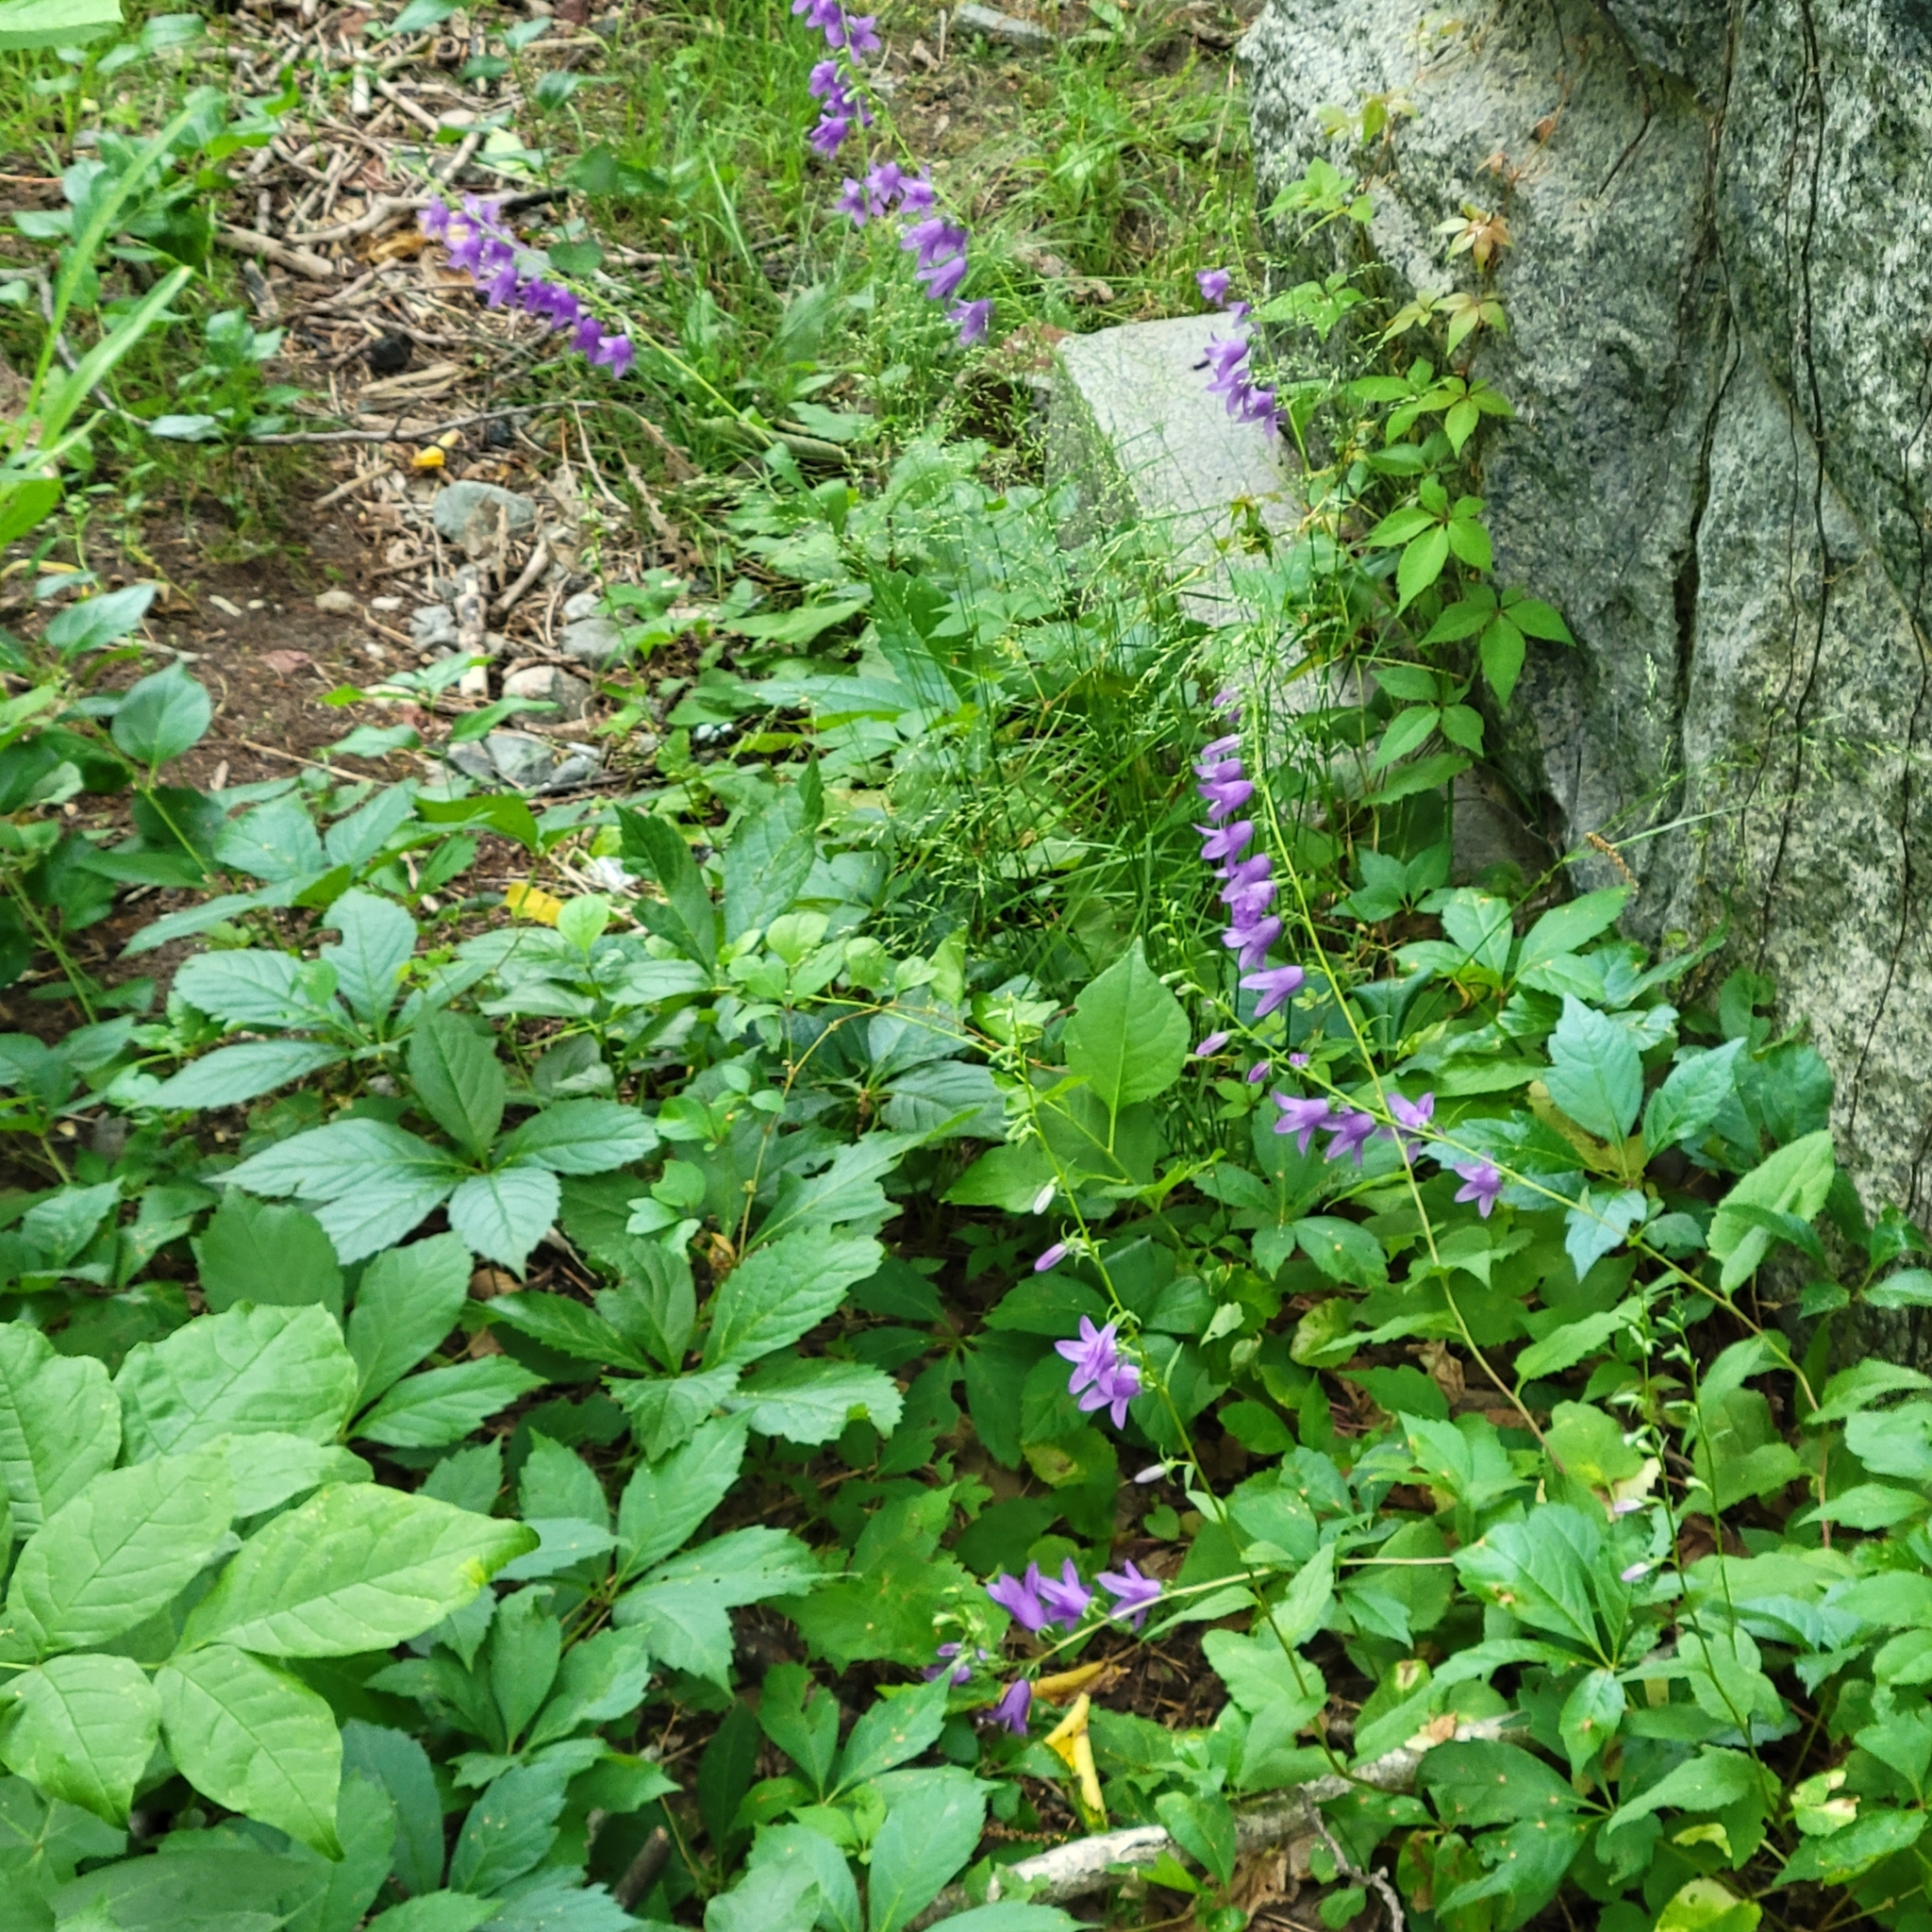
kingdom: Plantae
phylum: Tracheophyta
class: Magnoliopsida
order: Asterales
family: Campanulaceae
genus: Campanula
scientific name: Campanula rapunculoides
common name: Creeping bellflower
